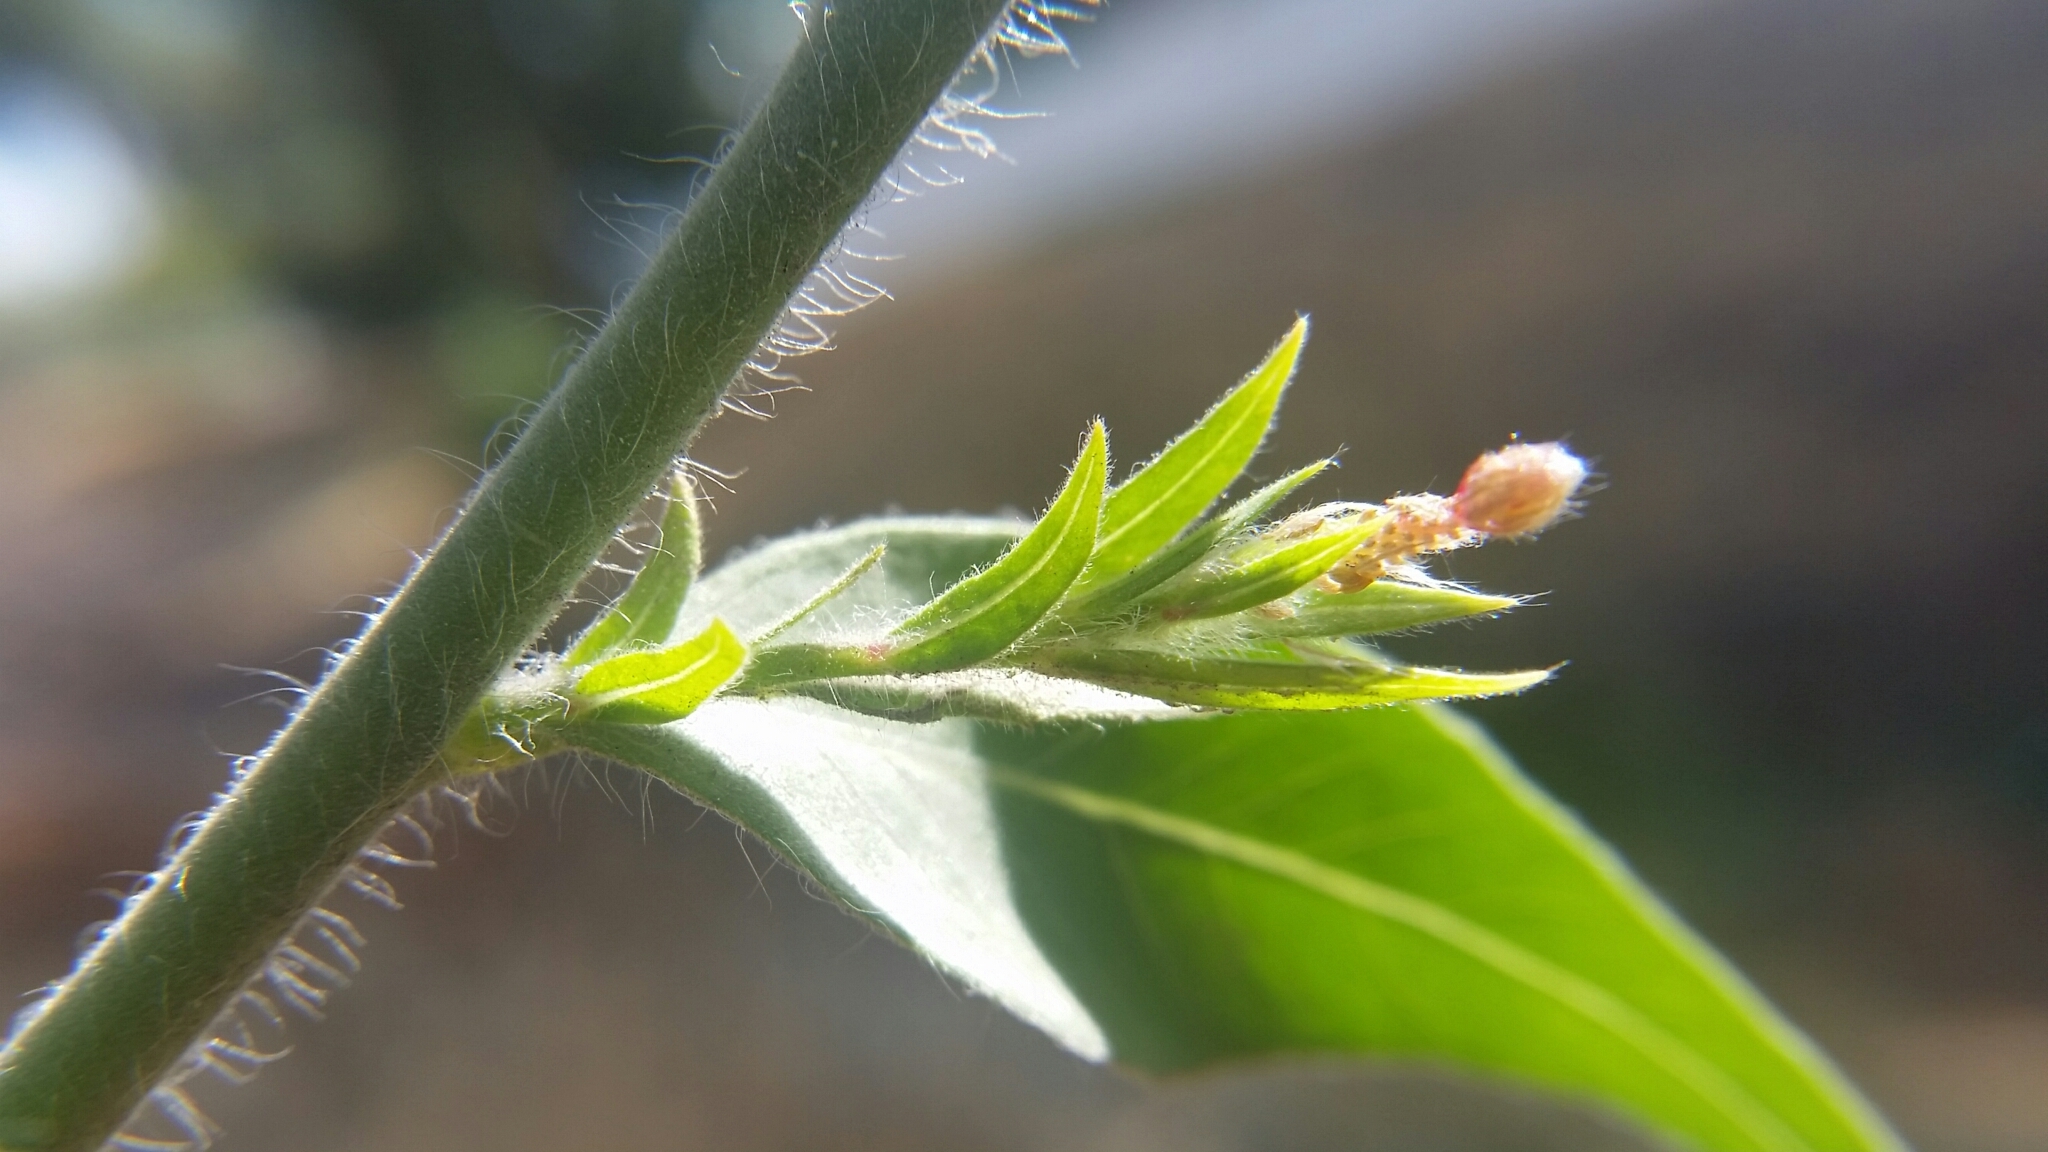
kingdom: Plantae
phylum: Tracheophyta
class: Magnoliopsida
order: Myrtales
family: Onagraceae
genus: Oenothera
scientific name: Oenothera curtiflora
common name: Velvetweed
